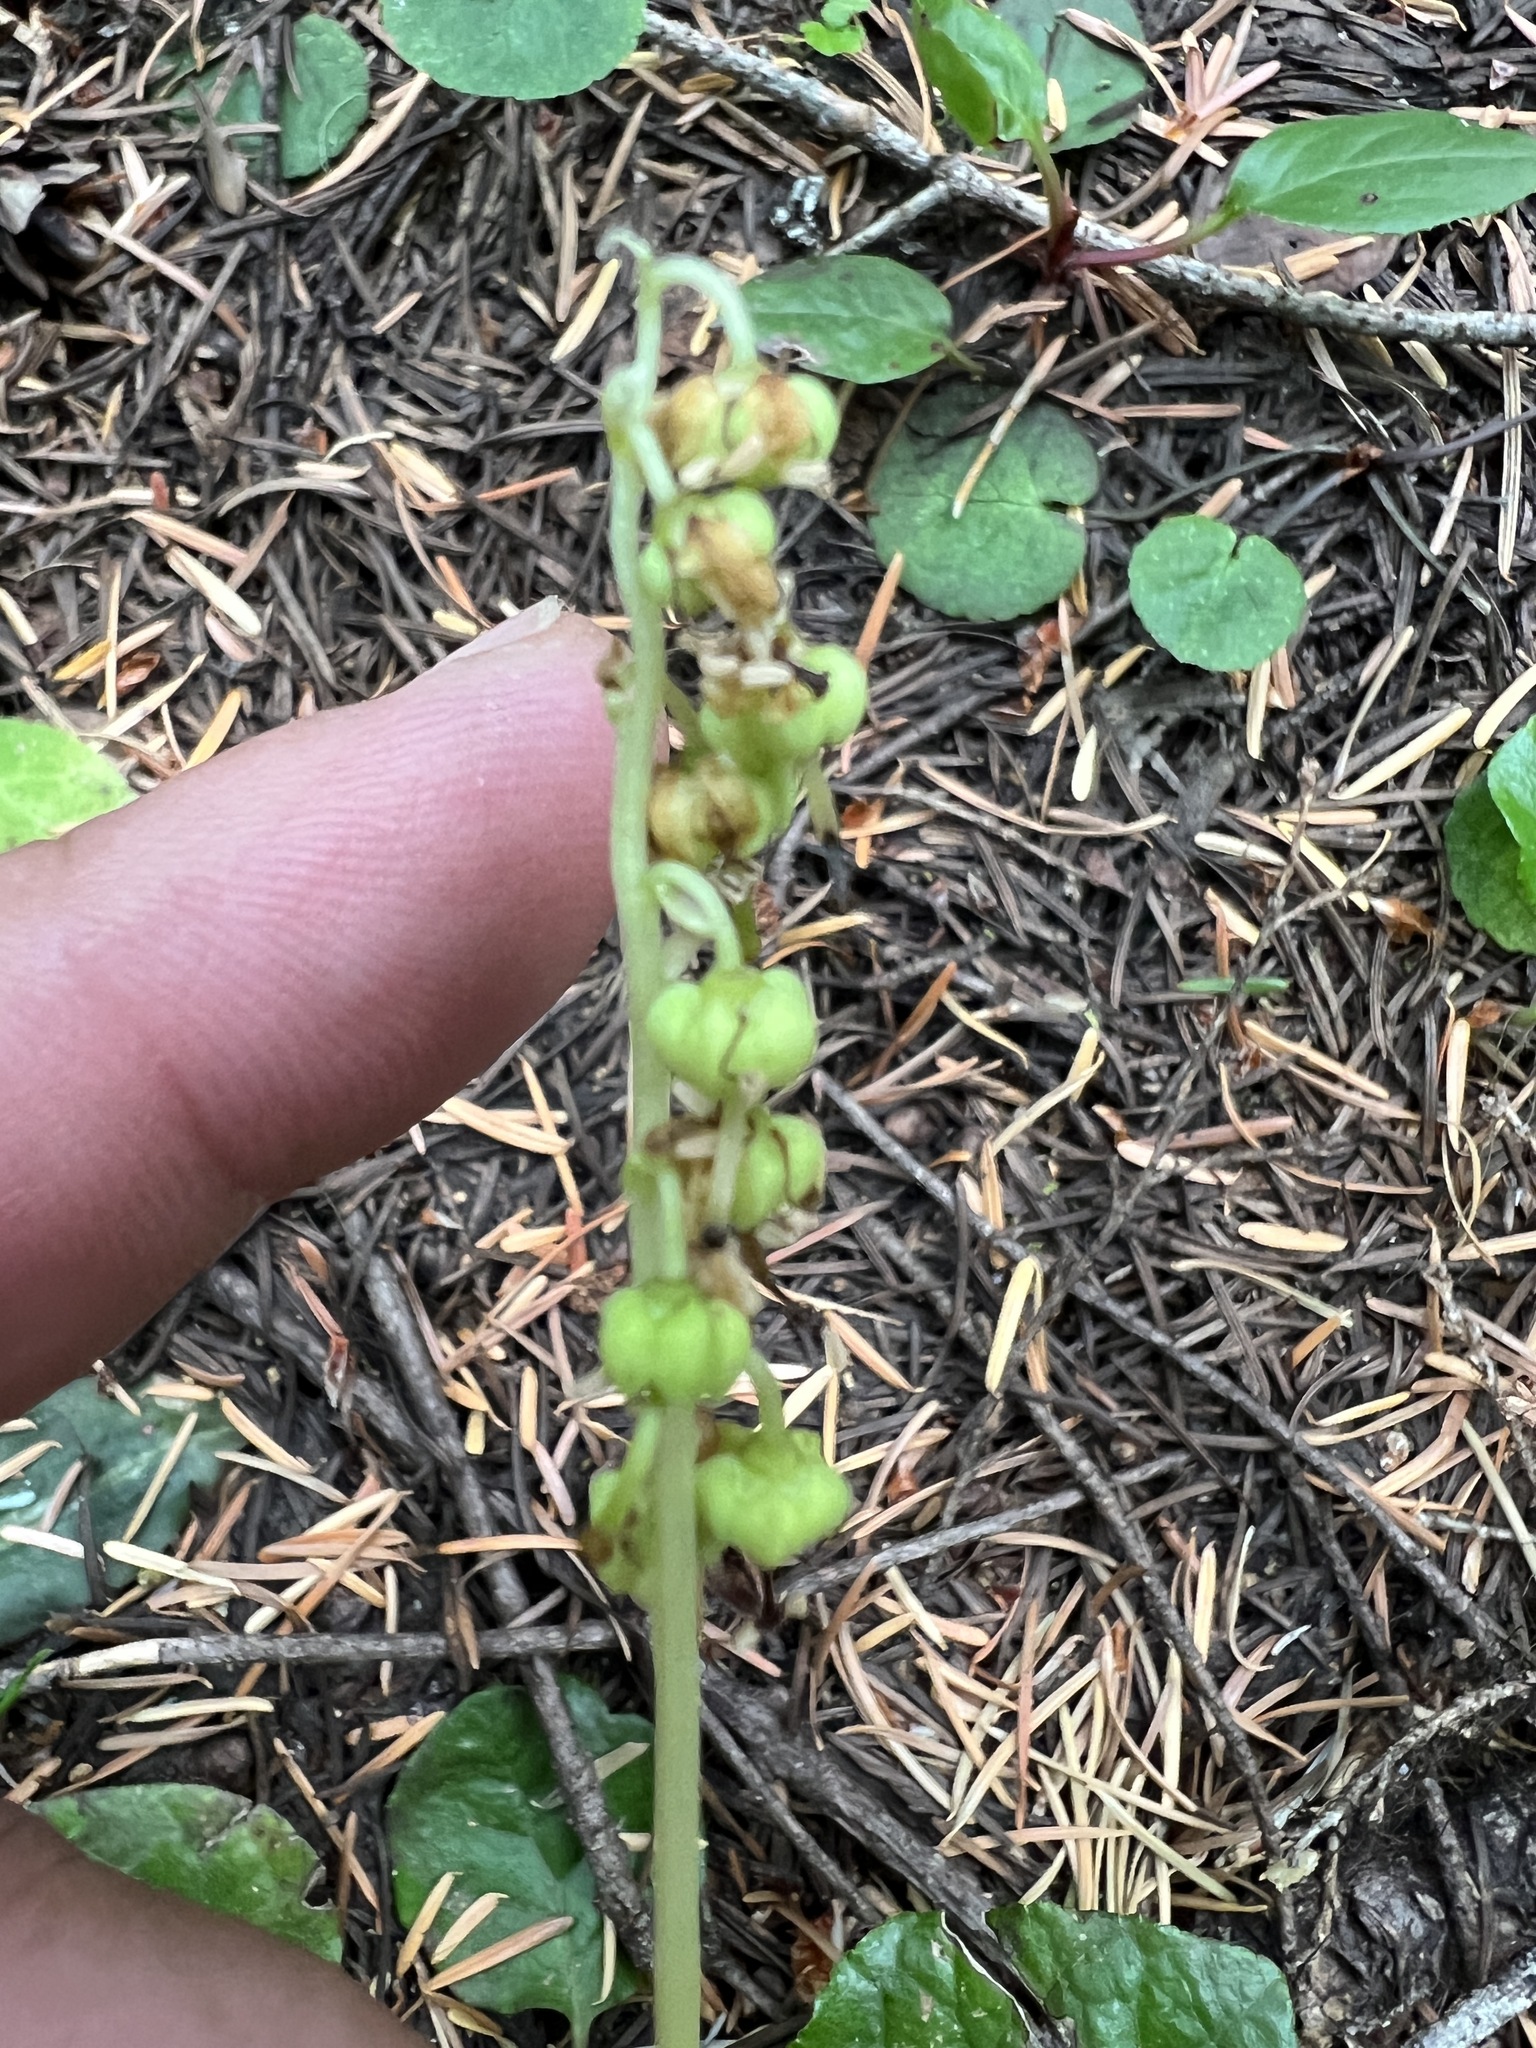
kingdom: Plantae
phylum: Tracheophyta
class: Magnoliopsida
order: Ericales
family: Ericaceae
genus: Orthilia
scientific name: Orthilia secunda
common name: One-sided orthilia
